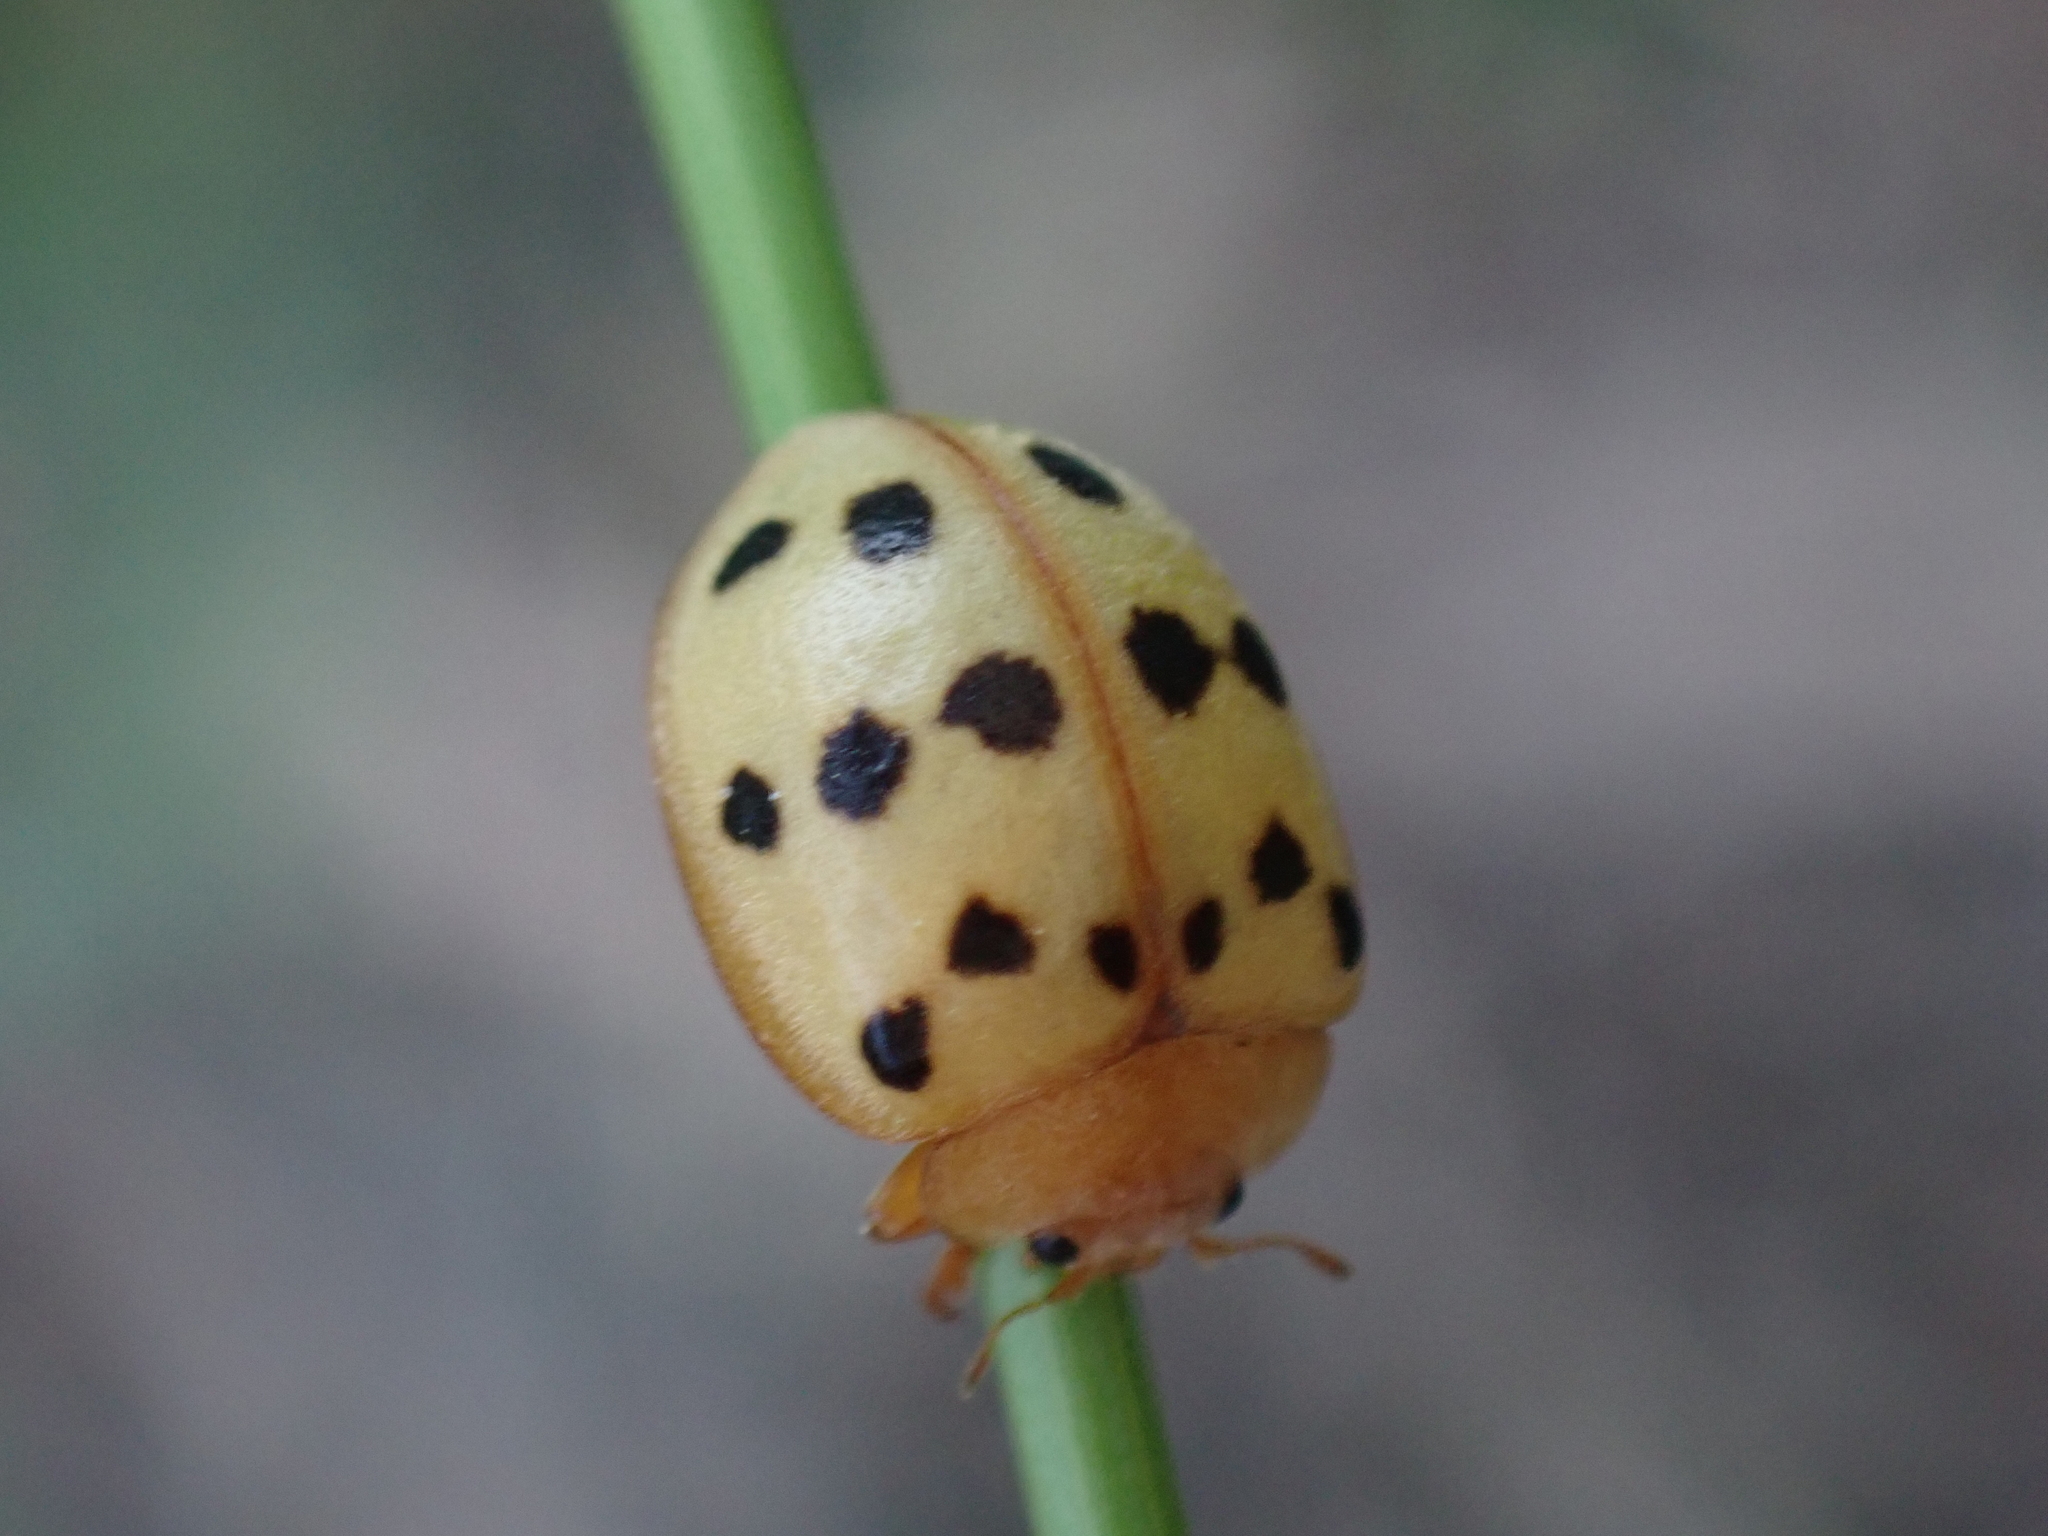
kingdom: Animalia
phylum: Arthropoda
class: Insecta
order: Coleoptera
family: Coccinellidae
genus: Epilachna
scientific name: Epilachna varivestis
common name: Ladybird beetle
